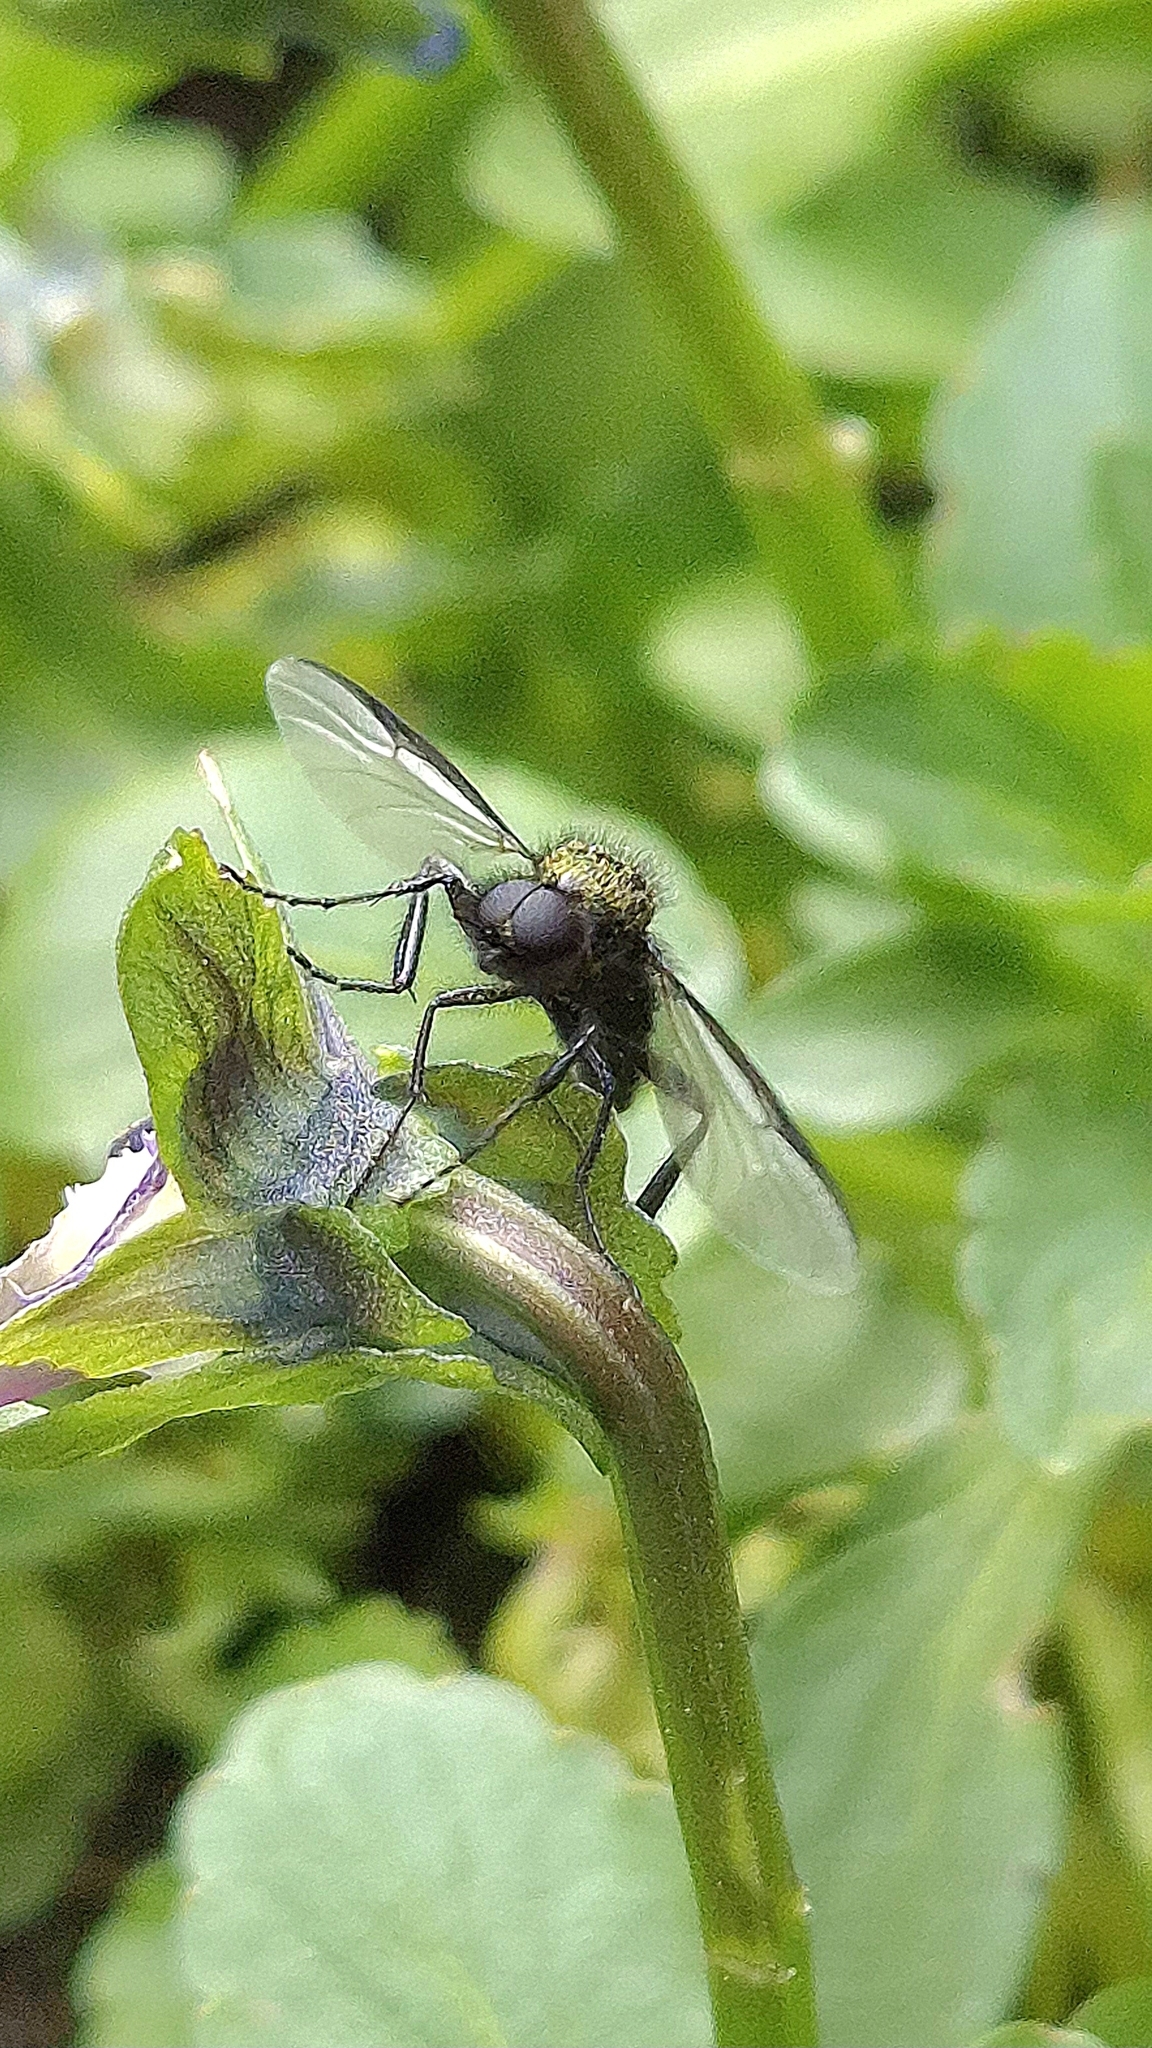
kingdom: Animalia
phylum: Arthropoda
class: Insecta
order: Diptera
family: Bibionidae
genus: Bibio
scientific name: Bibio marci
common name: St marks fly
